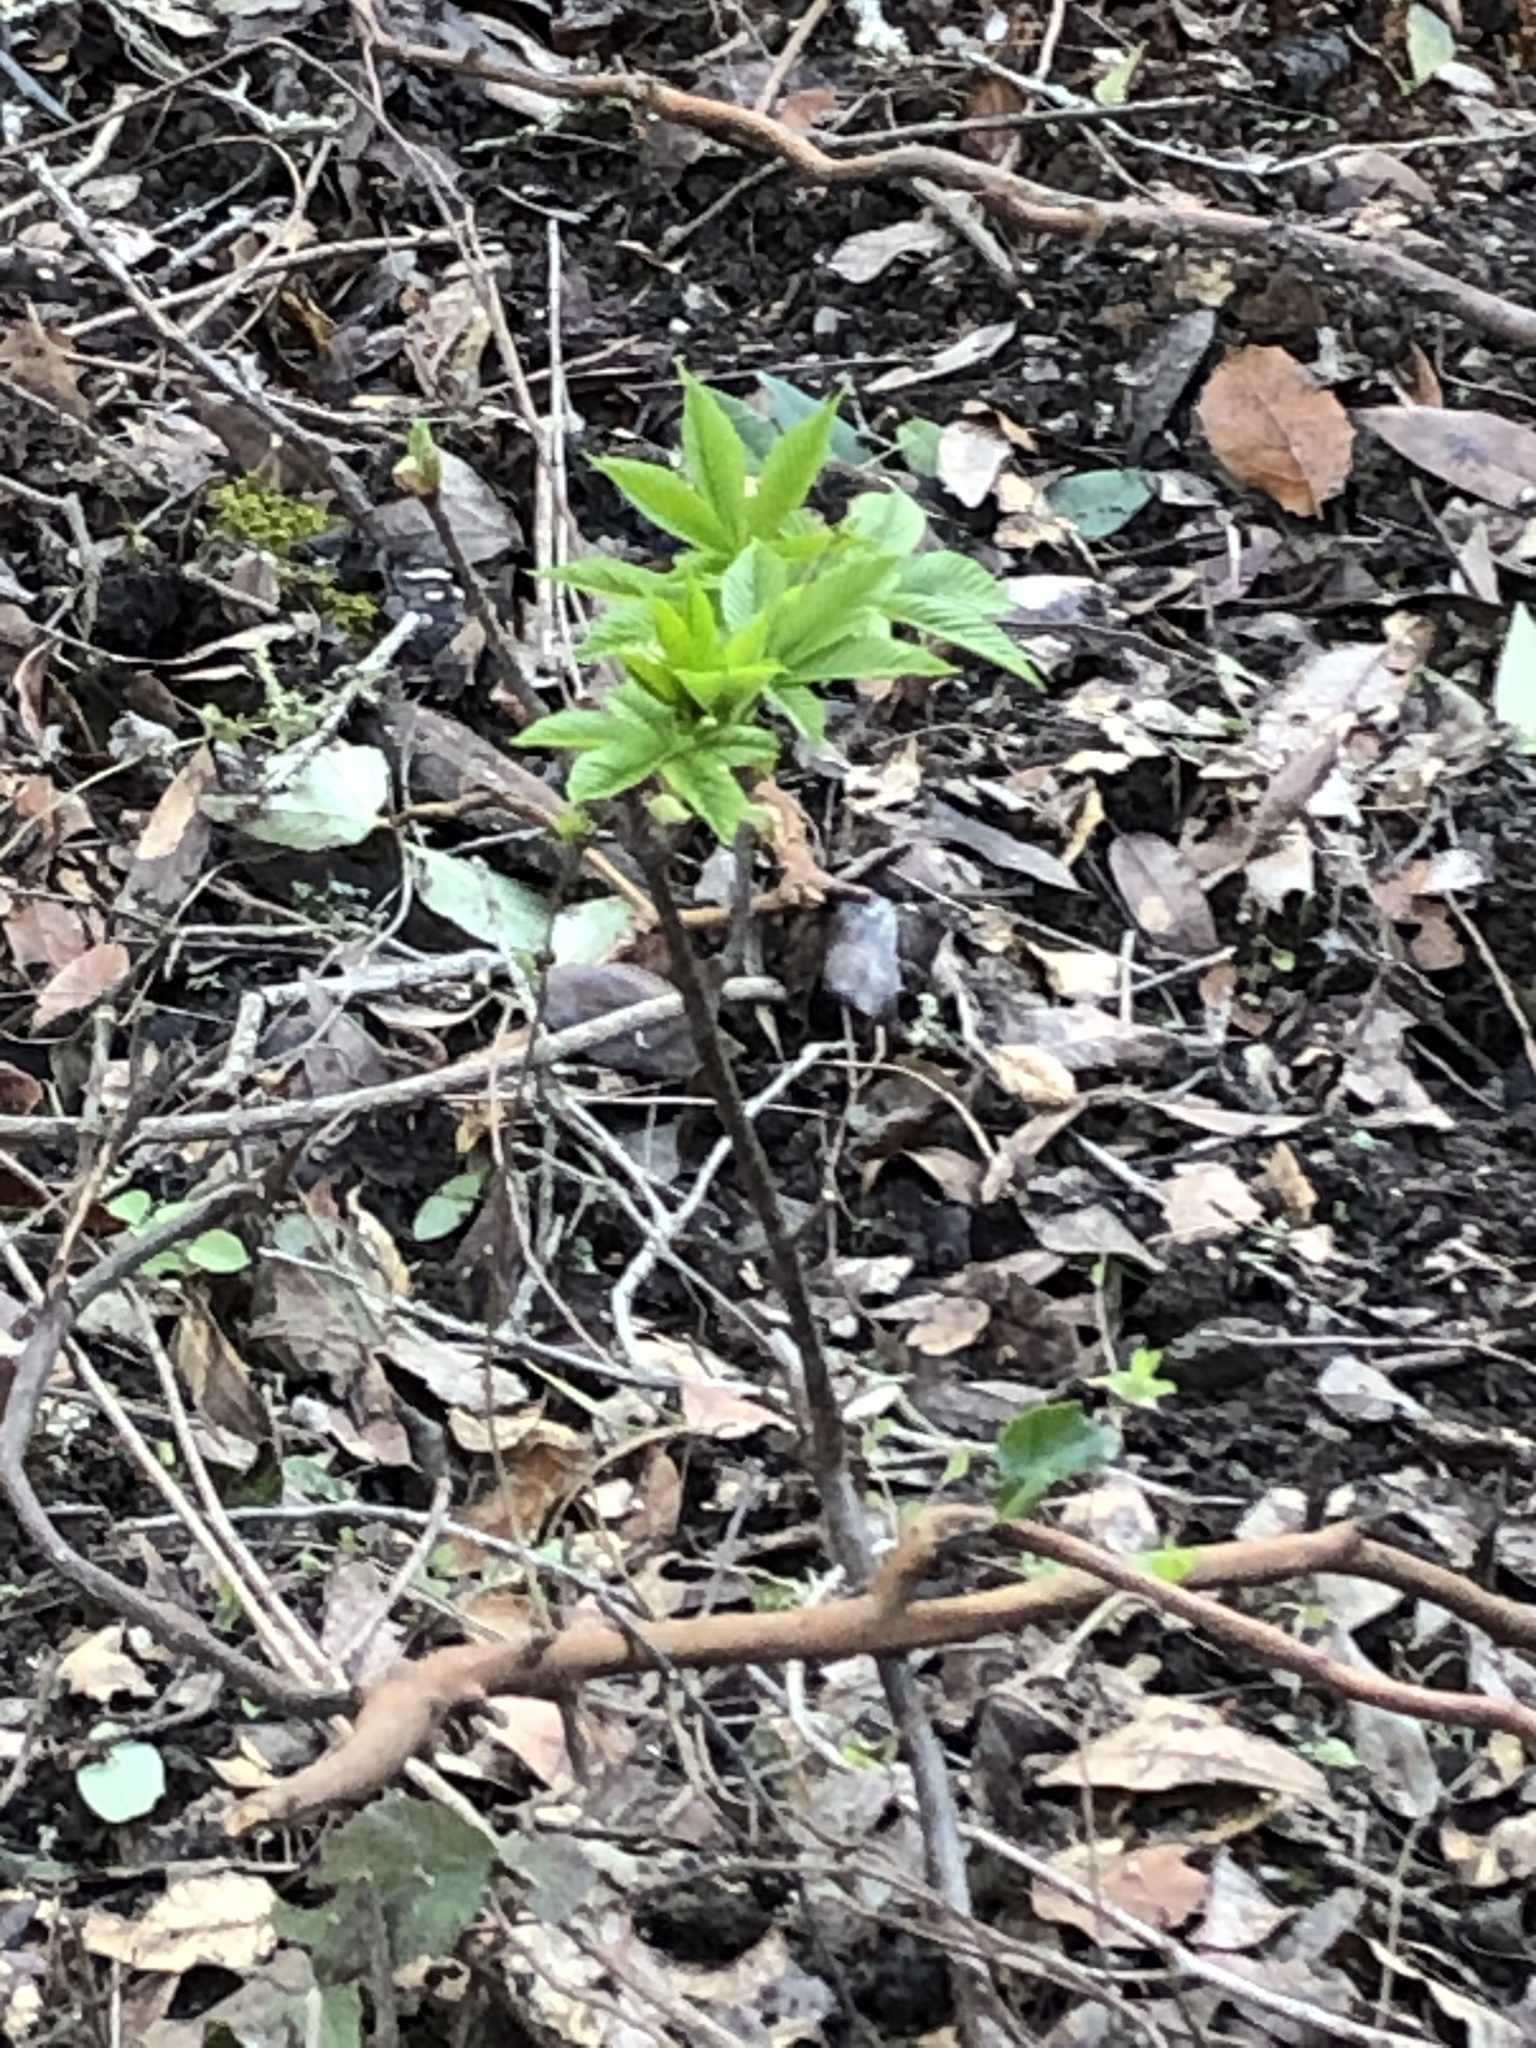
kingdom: Plantae
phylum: Tracheophyta
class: Magnoliopsida
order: Sapindales
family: Sapindaceae
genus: Aesculus
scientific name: Aesculus californica
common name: California buckeye
